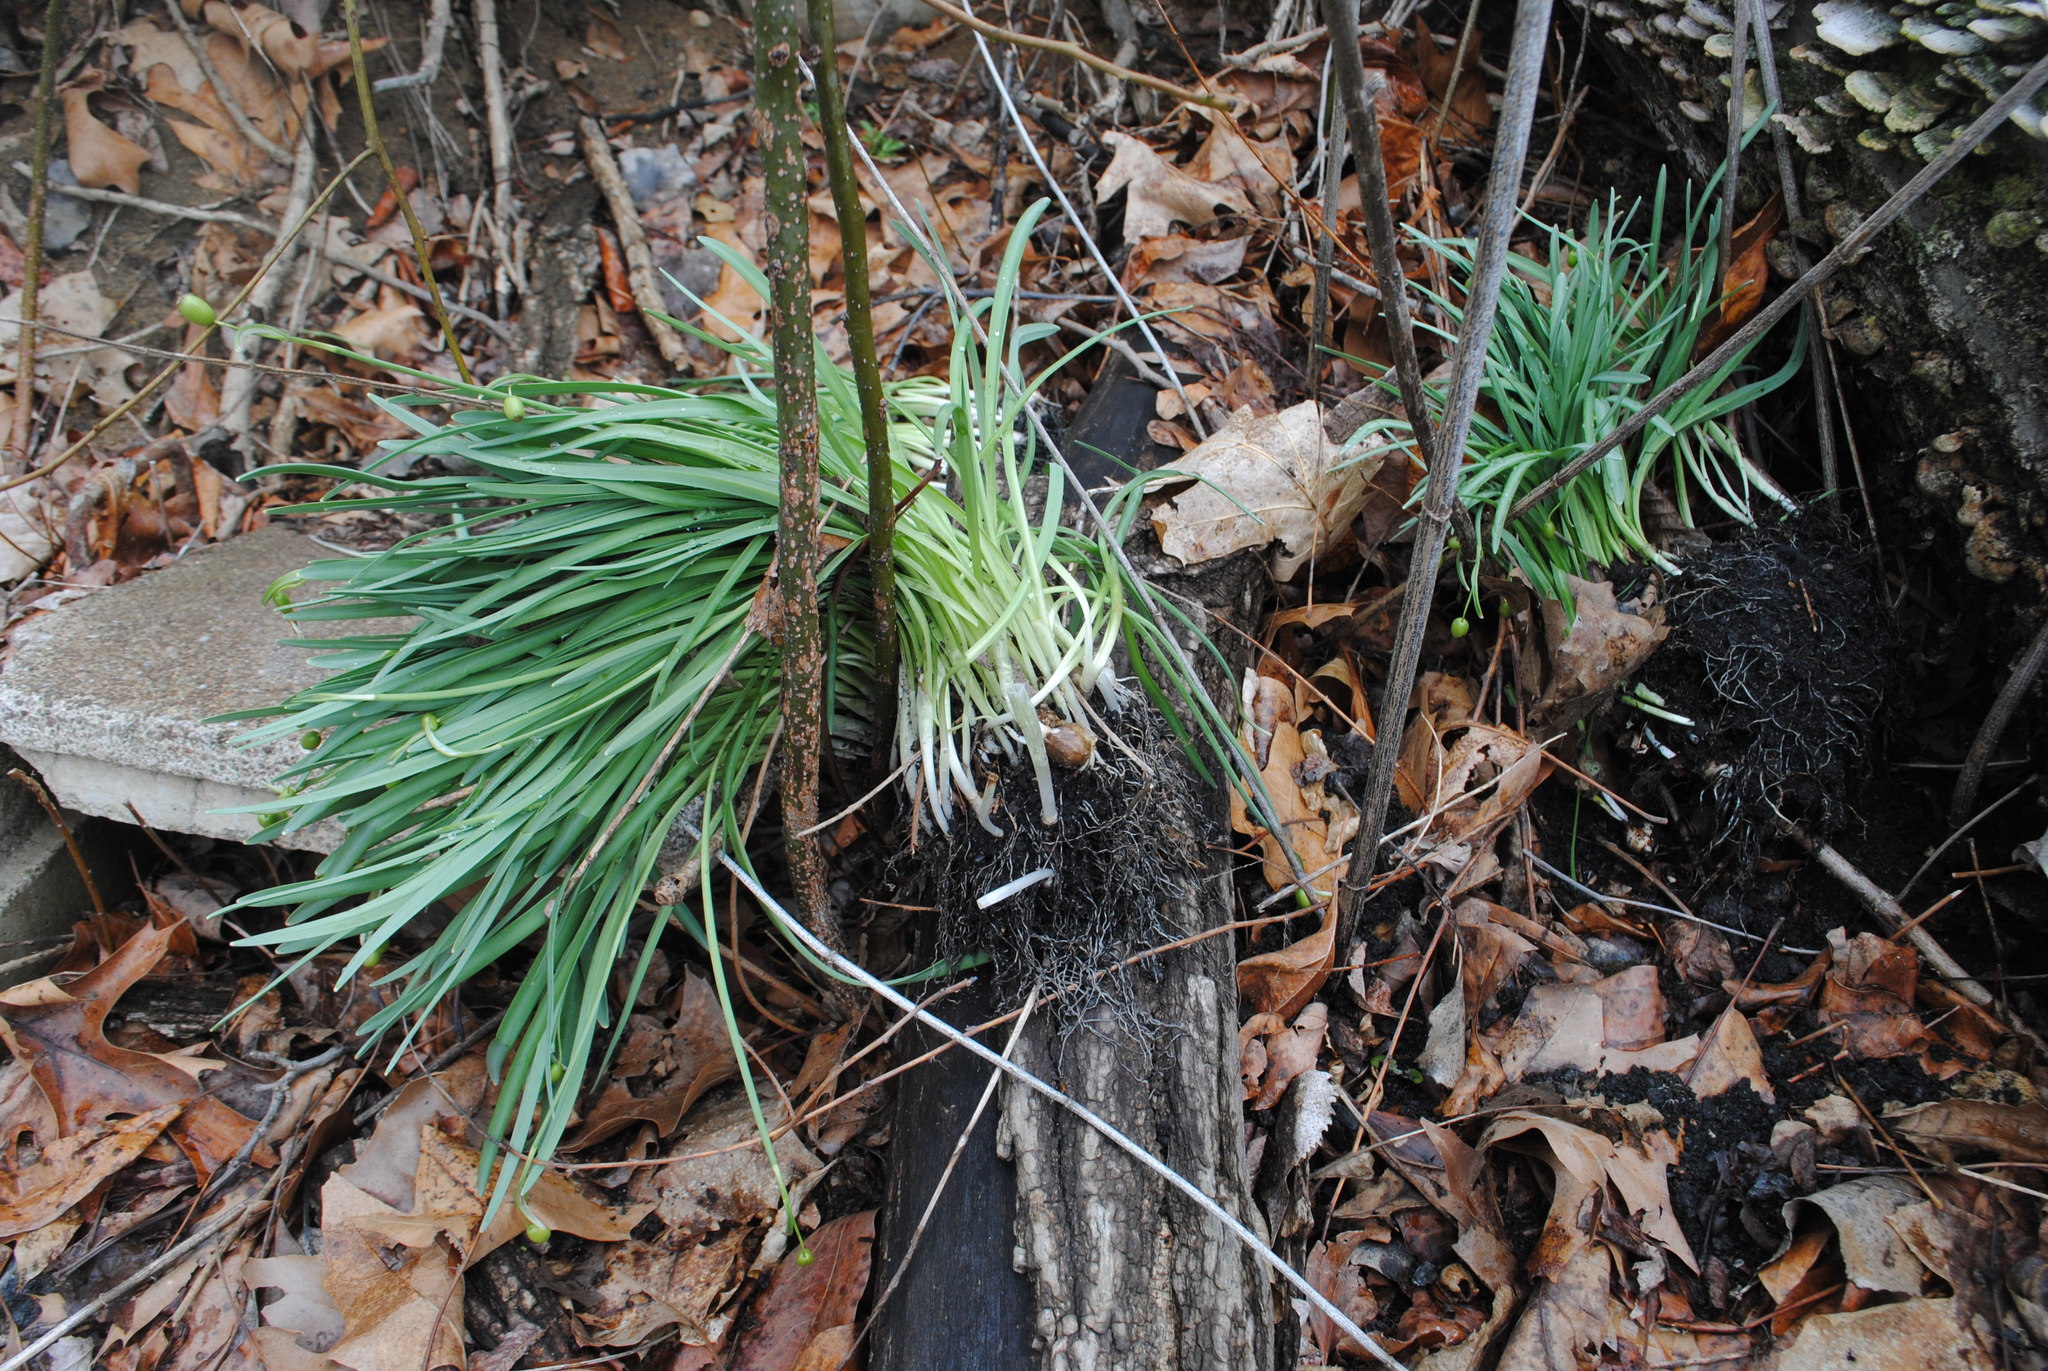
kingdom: Plantae
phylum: Tracheophyta
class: Liliopsida
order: Asparagales
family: Amaryllidaceae
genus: Galanthus
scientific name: Galanthus nivalis
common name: Snowdrop
